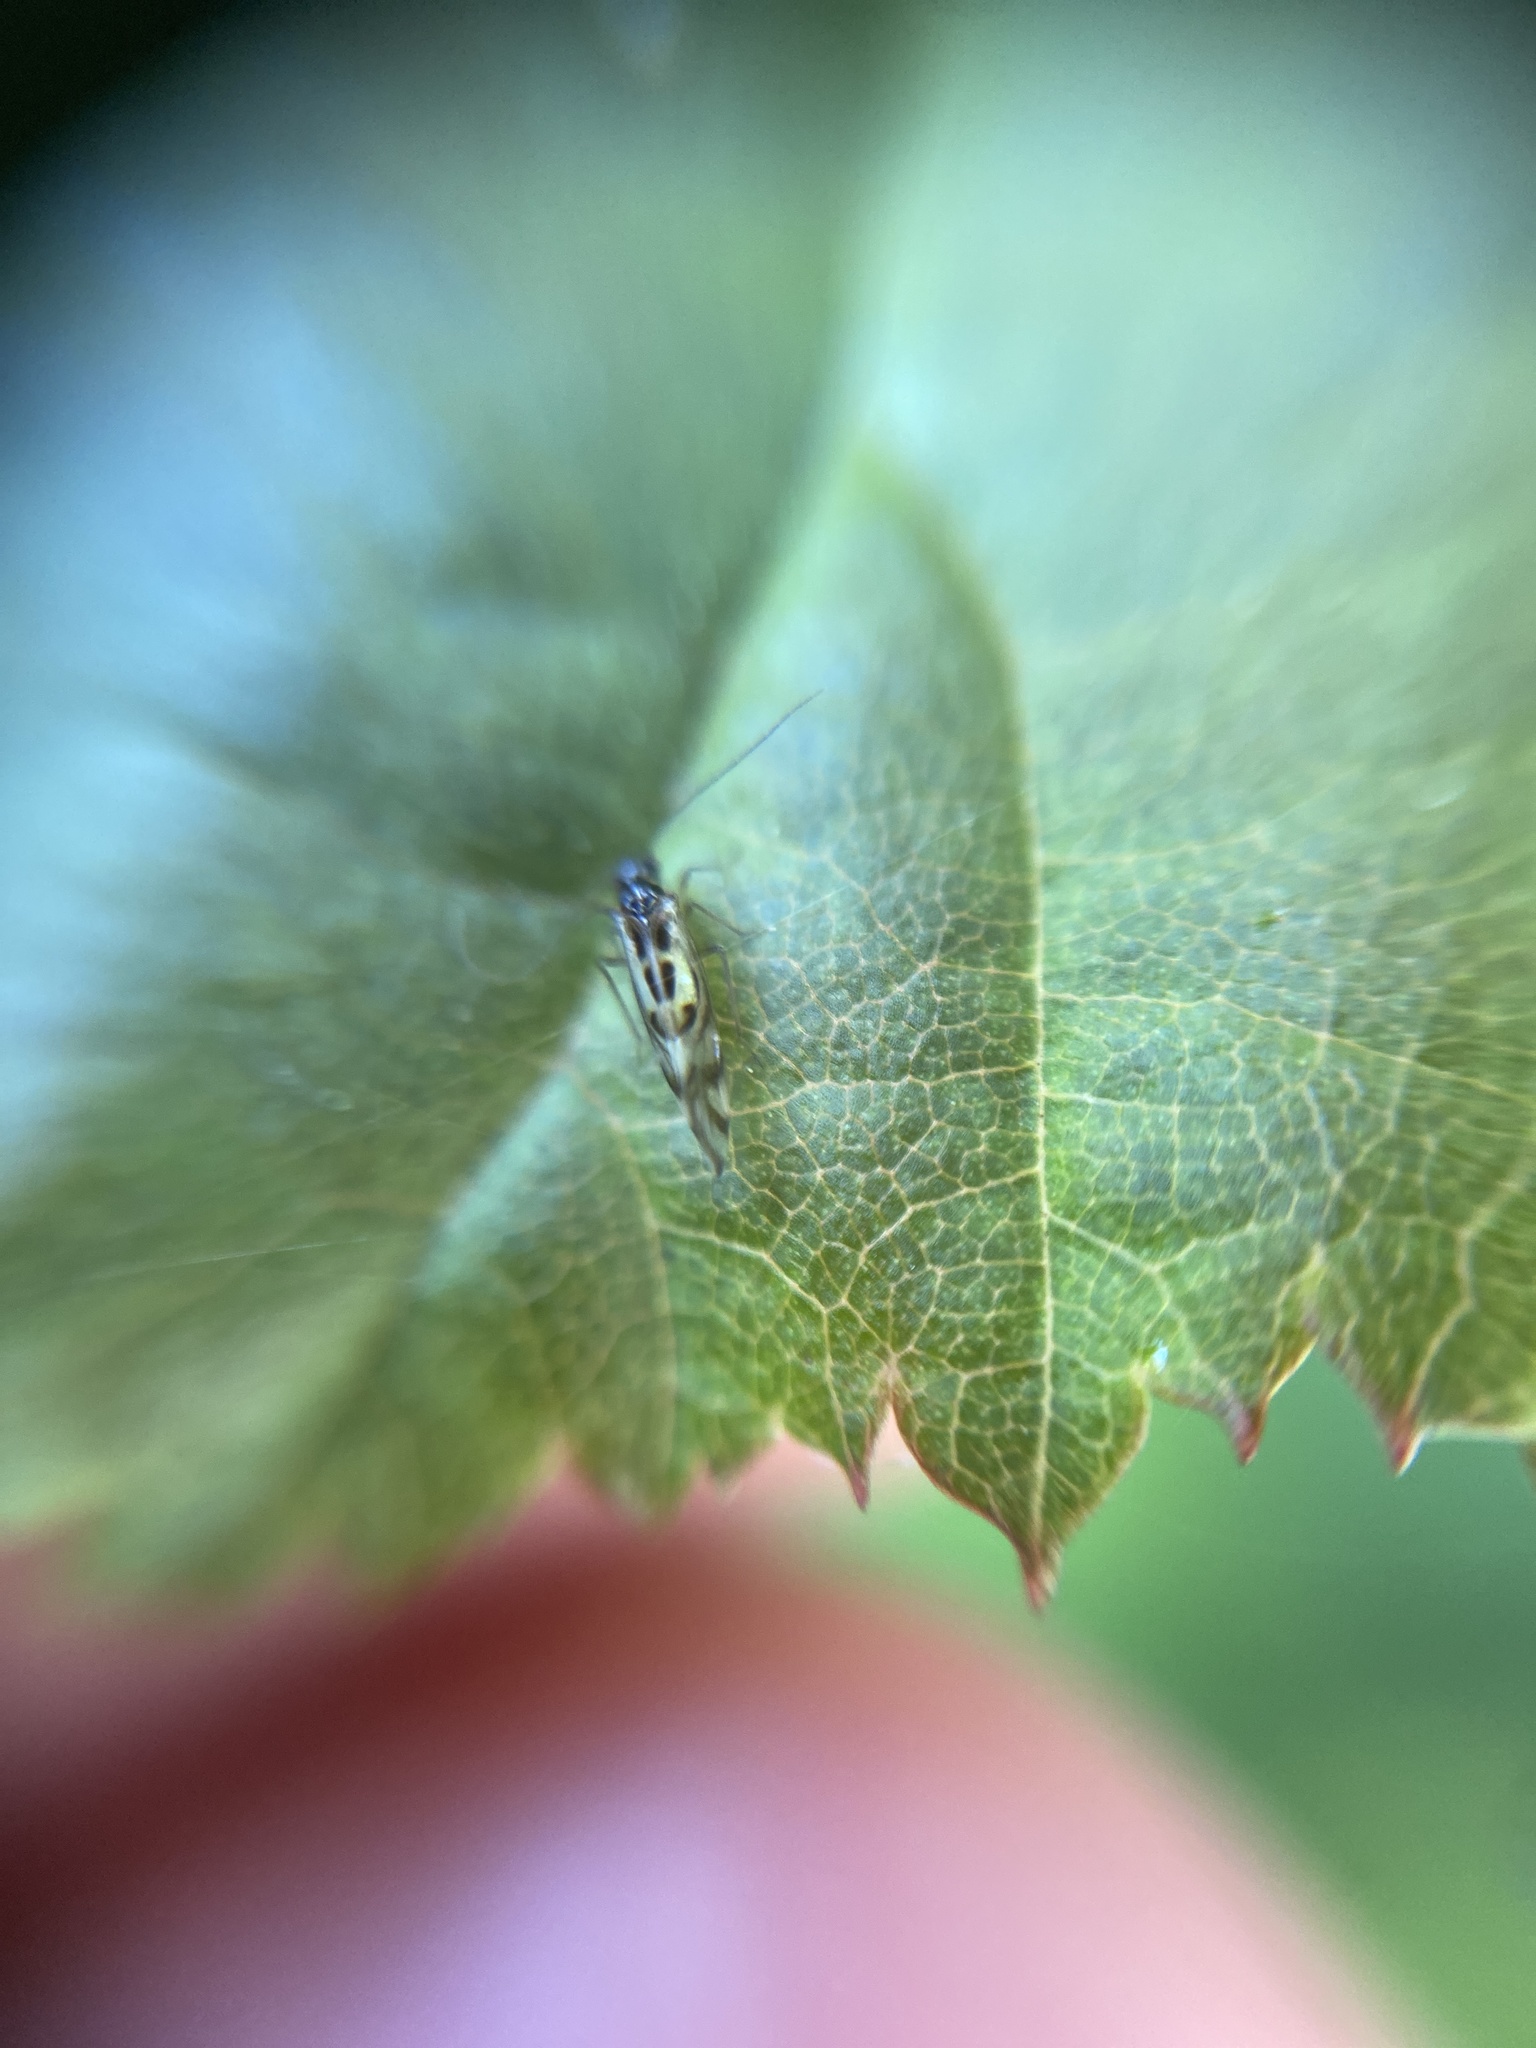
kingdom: Animalia
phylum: Arthropoda
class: Insecta
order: Psocodea
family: Stenopsocidae
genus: Graphopsocus
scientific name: Graphopsocus cruciatus
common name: Lizard bark louse
